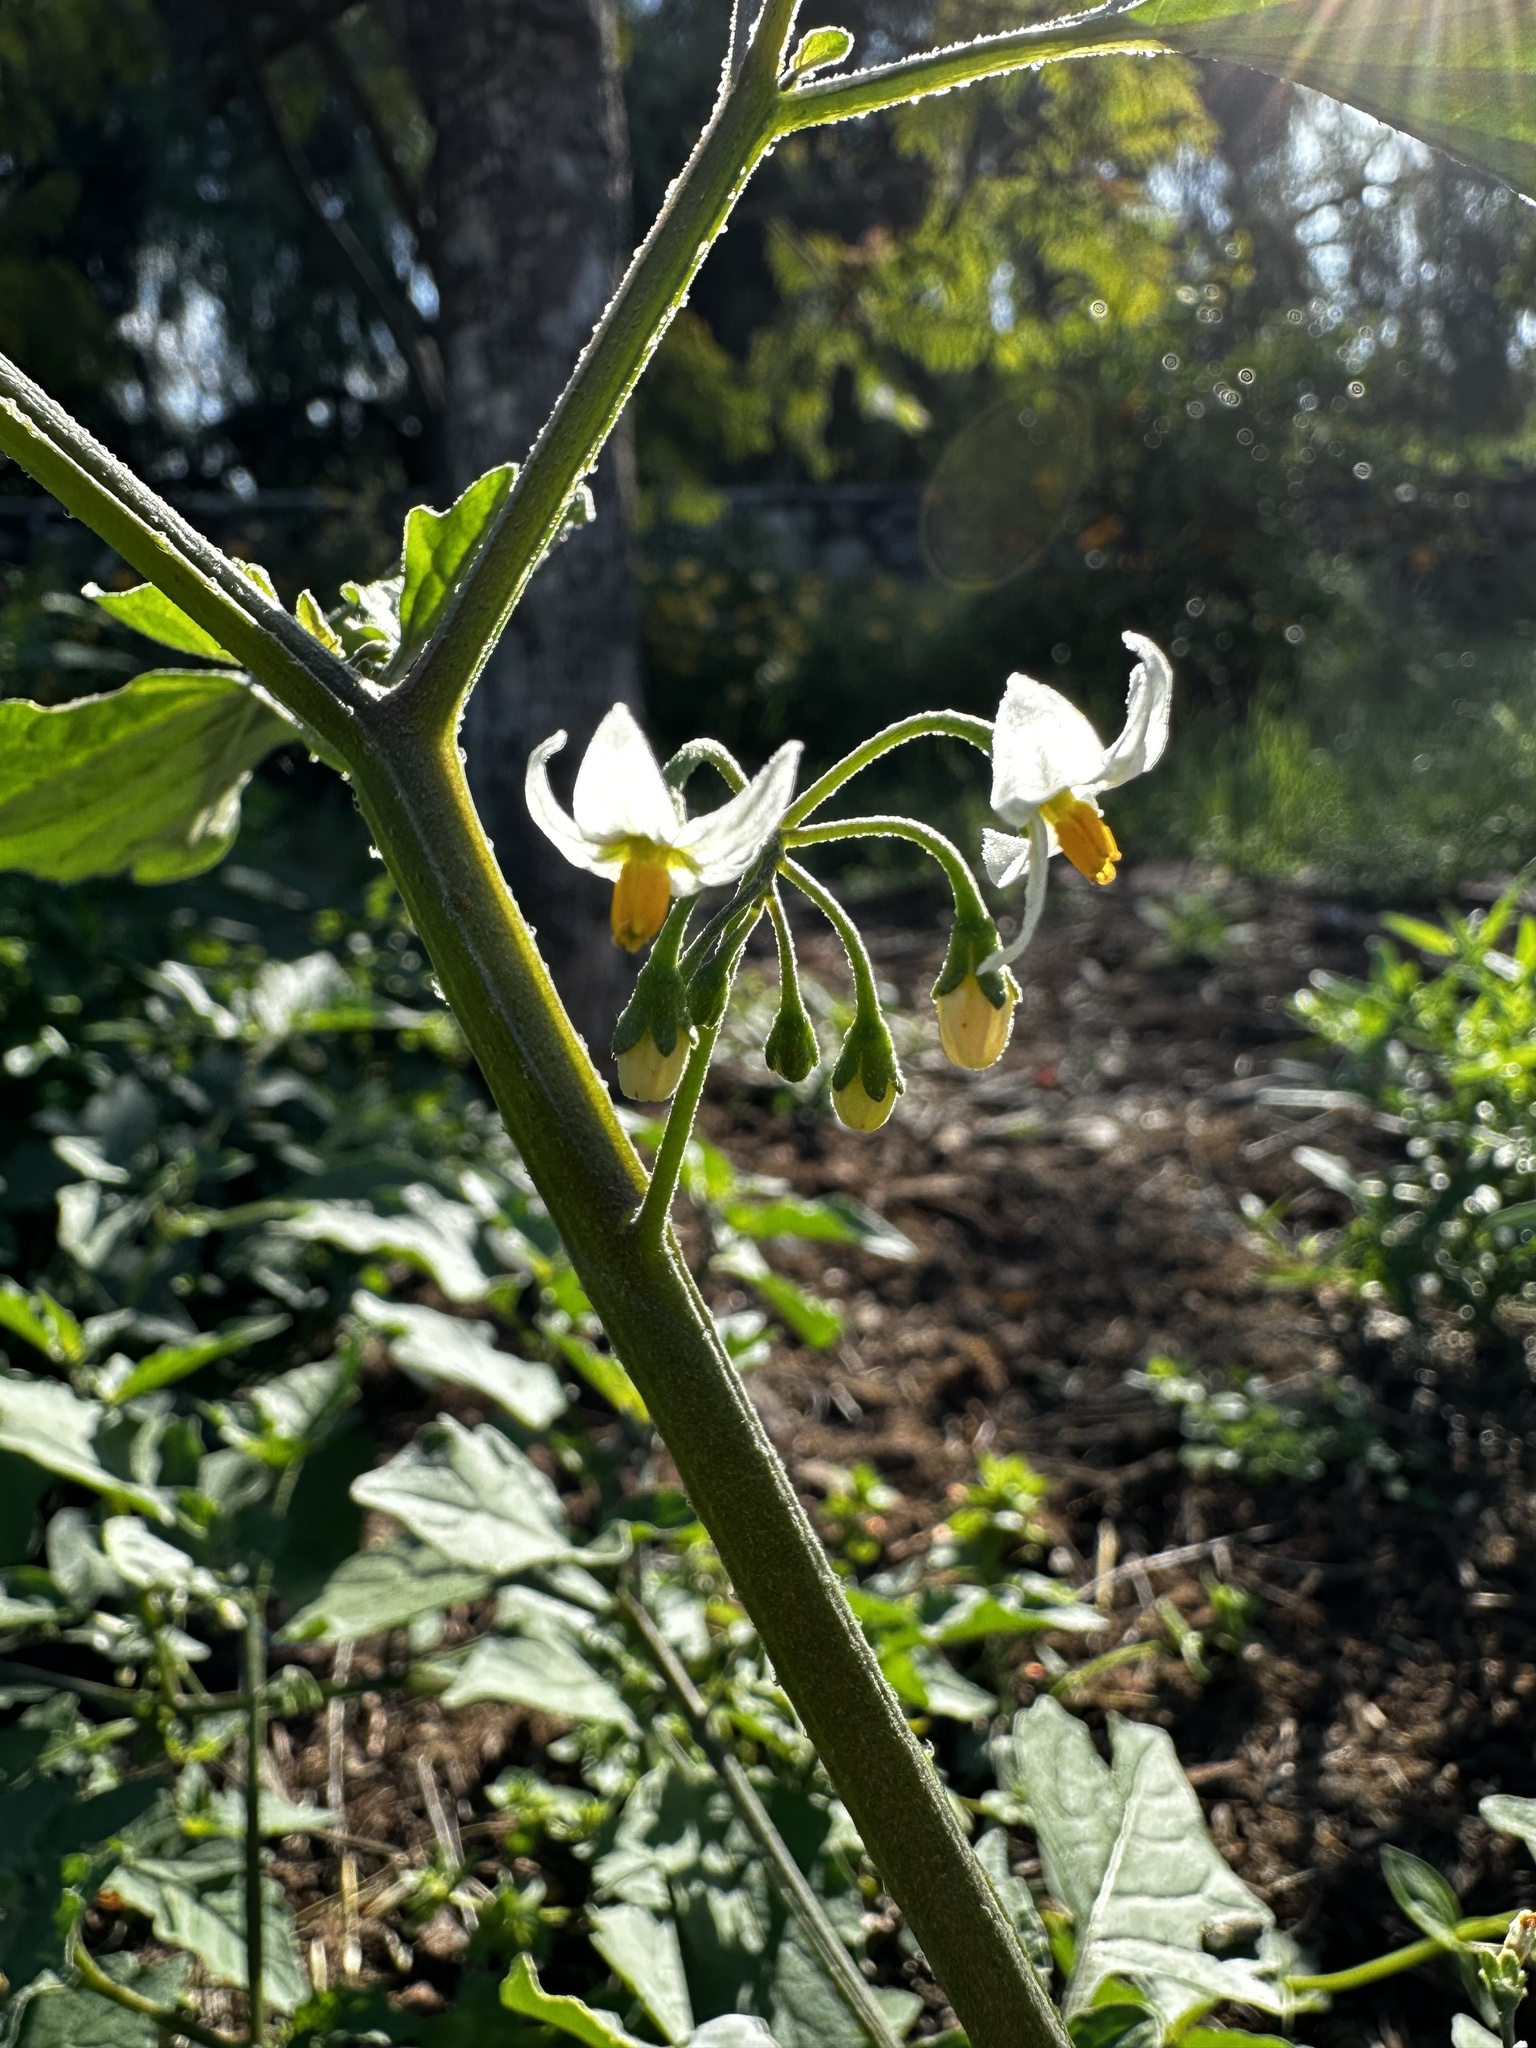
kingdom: Plantae
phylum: Tracheophyta
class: Magnoliopsida
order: Solanales
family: Solanaceae
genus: Solanum
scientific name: Solanum nigrum
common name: Black nightshade
